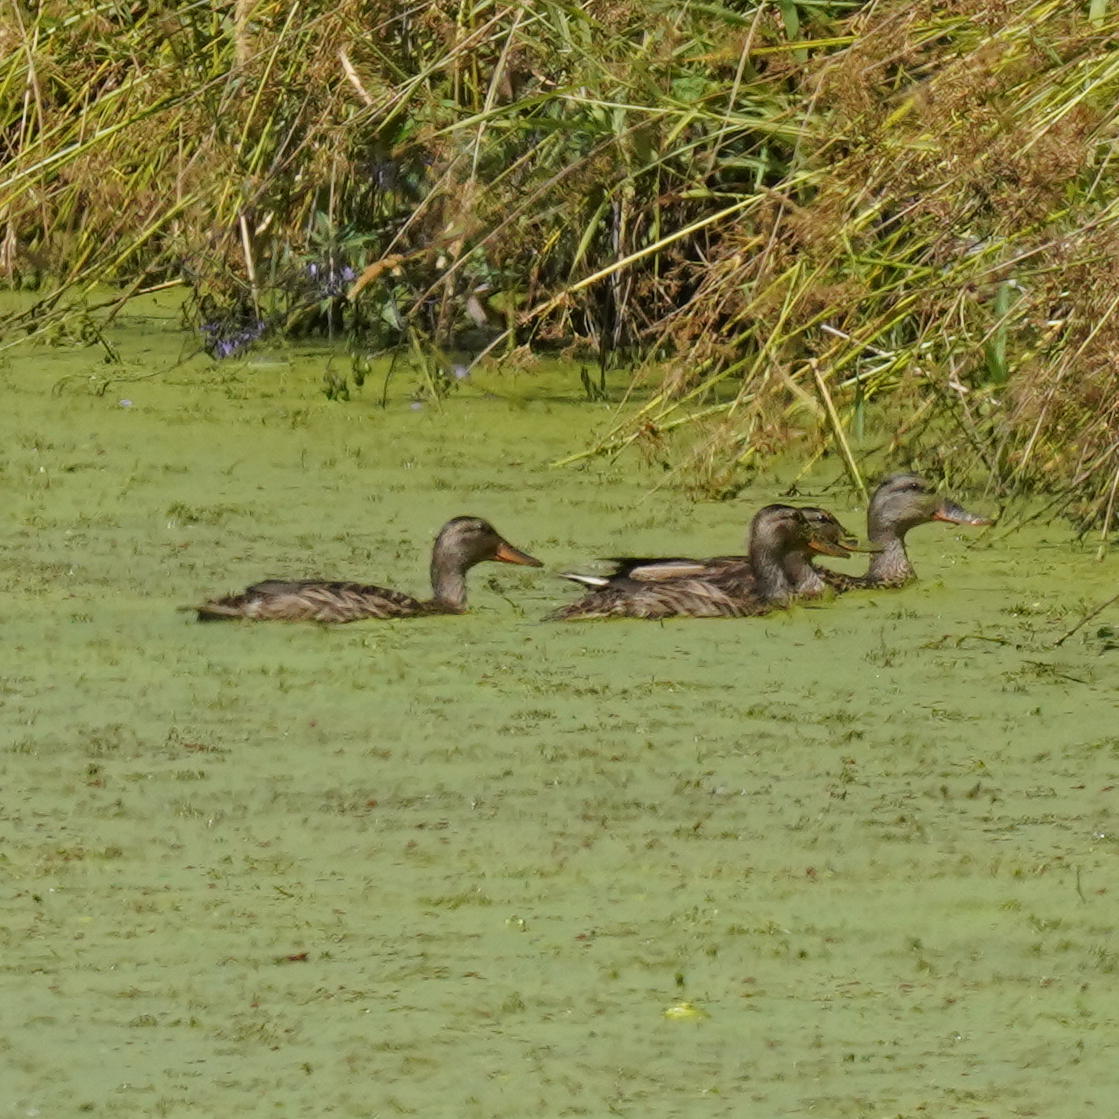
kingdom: Animalia
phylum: Chordata
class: Aves
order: Anseriformes
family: Anatidae
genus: Anas
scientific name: Anas platyrhynchos
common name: Mallard
